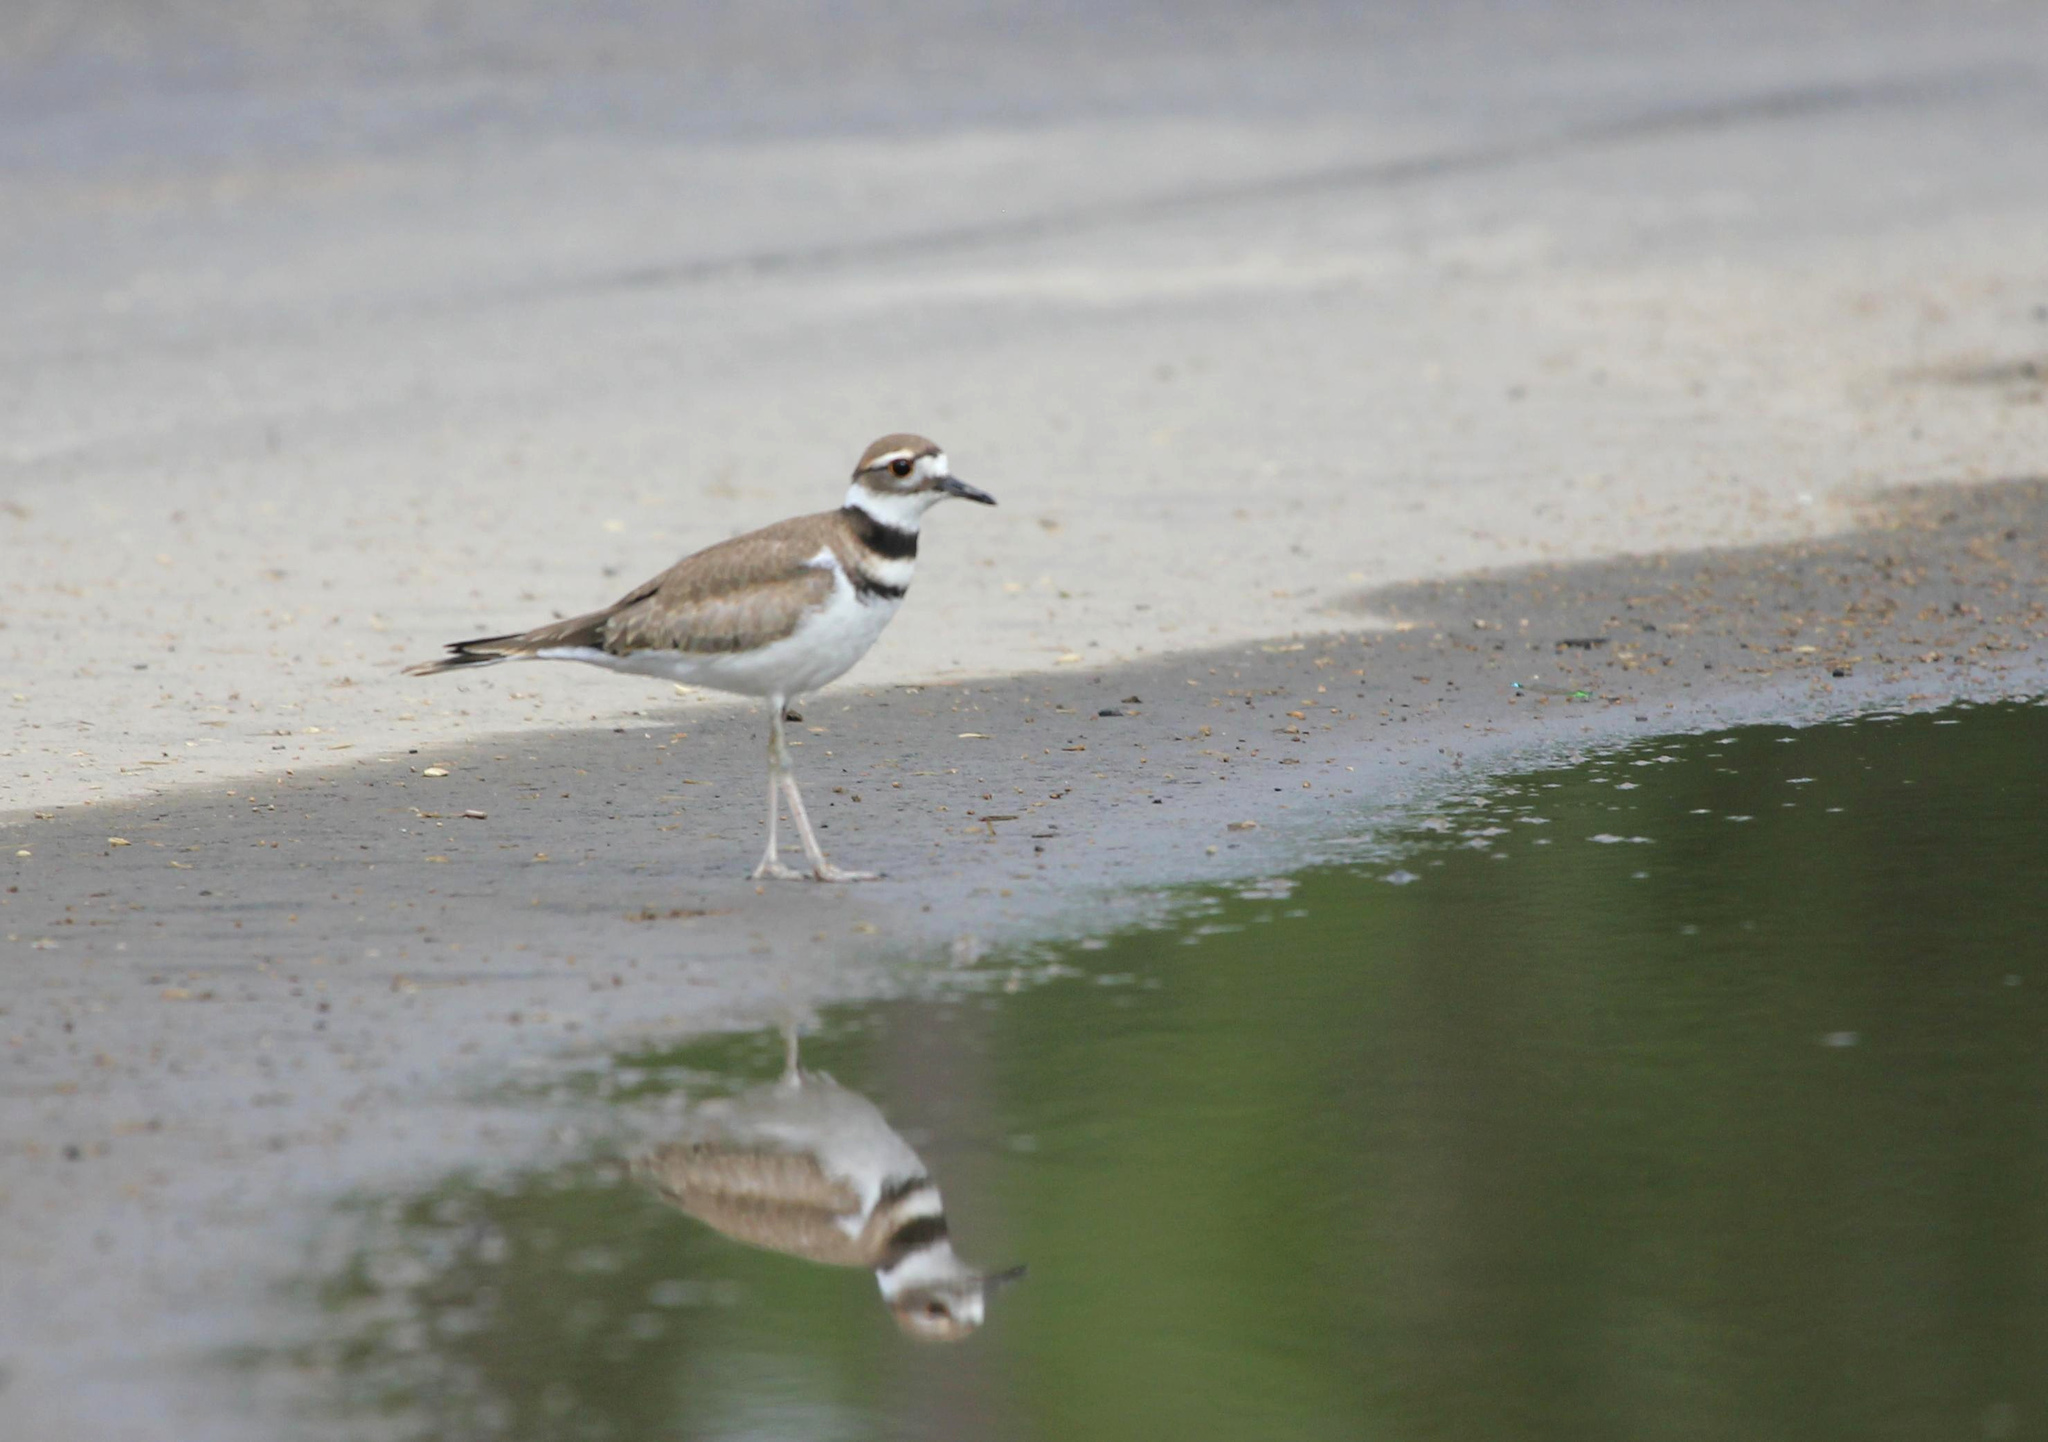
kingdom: Animalia
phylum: Chordata
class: Aves
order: Charadriiformes
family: Charadriidae
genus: Charadrius
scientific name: Charadrius vociferus
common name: Killdeer
